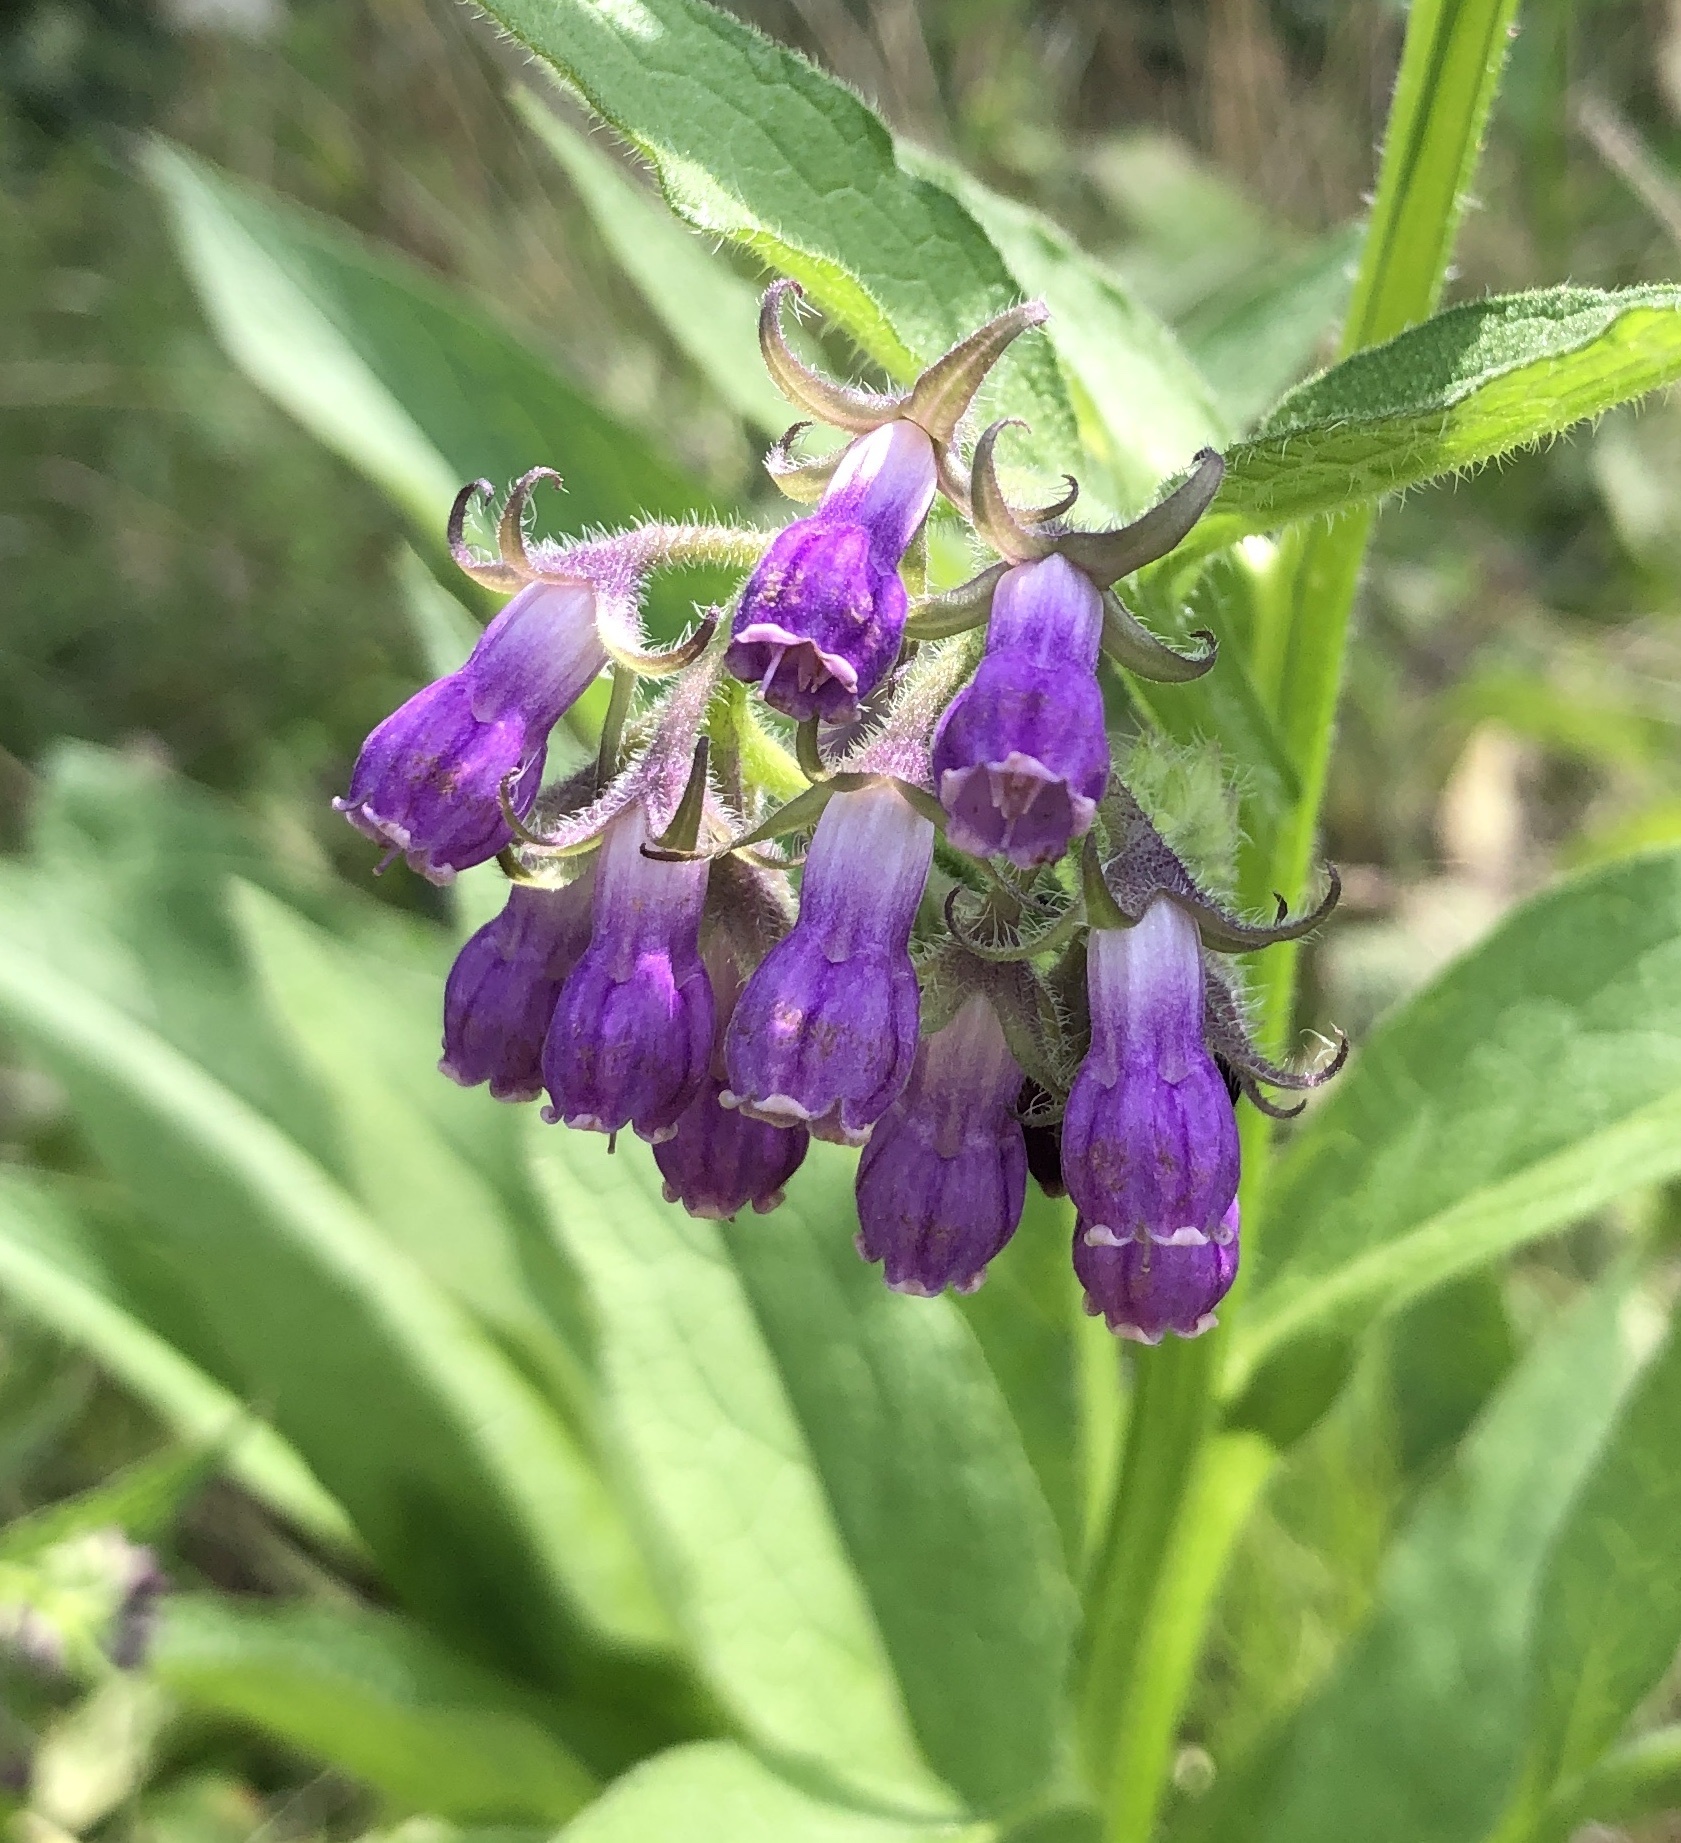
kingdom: Plantae
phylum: Tracheophyta
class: Magnoliopsida
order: Boraginales
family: Boraginaceae
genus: Symphytum
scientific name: Symphytum officinale
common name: Common comfrey
